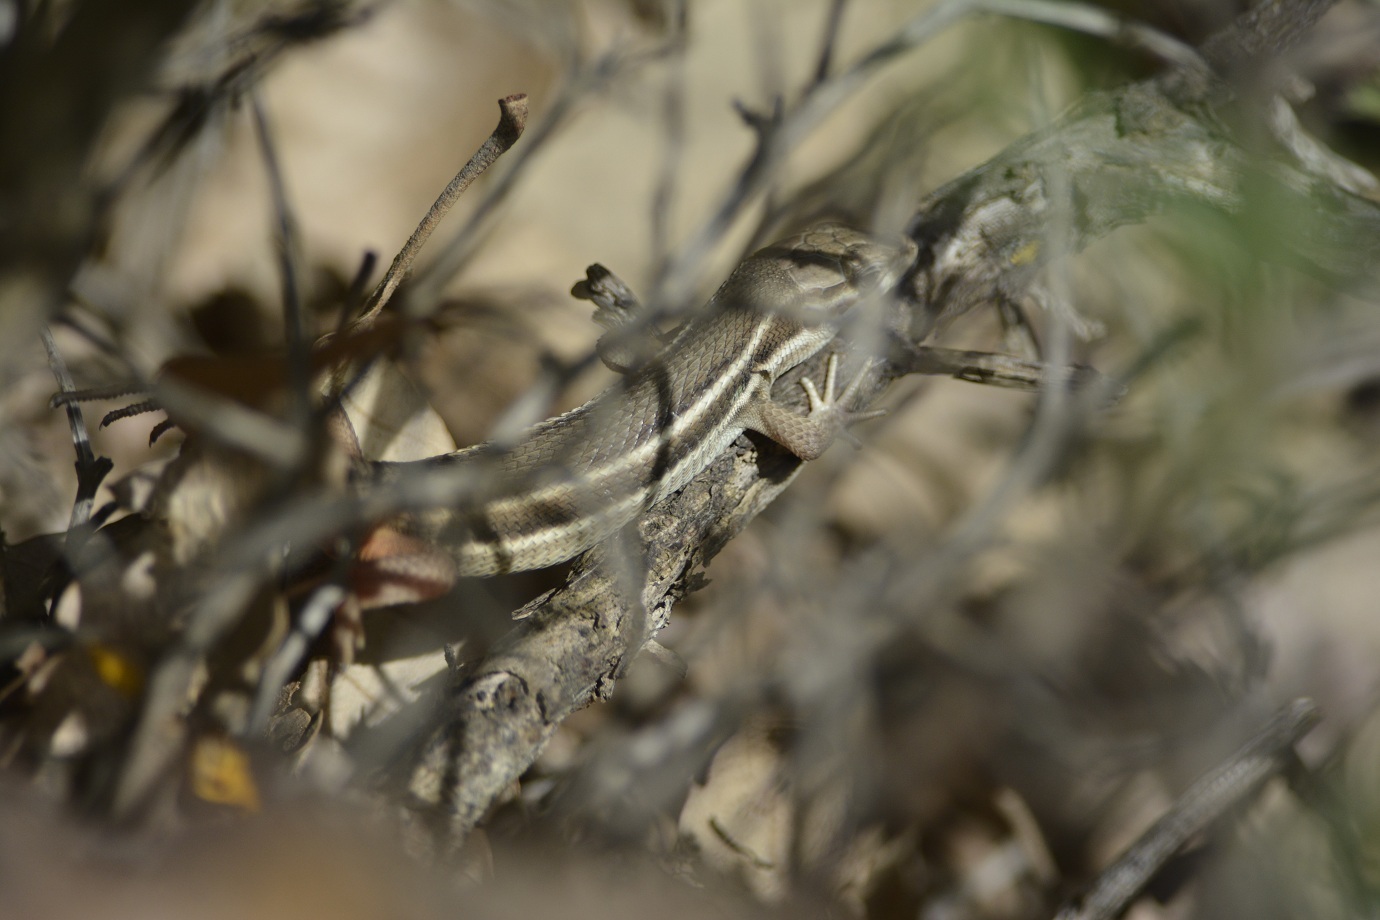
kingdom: Animalia
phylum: Chordata
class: Squamata
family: Lacertidae
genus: Psammodromus
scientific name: Psammodromus algirus
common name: Algerian psammodromus
